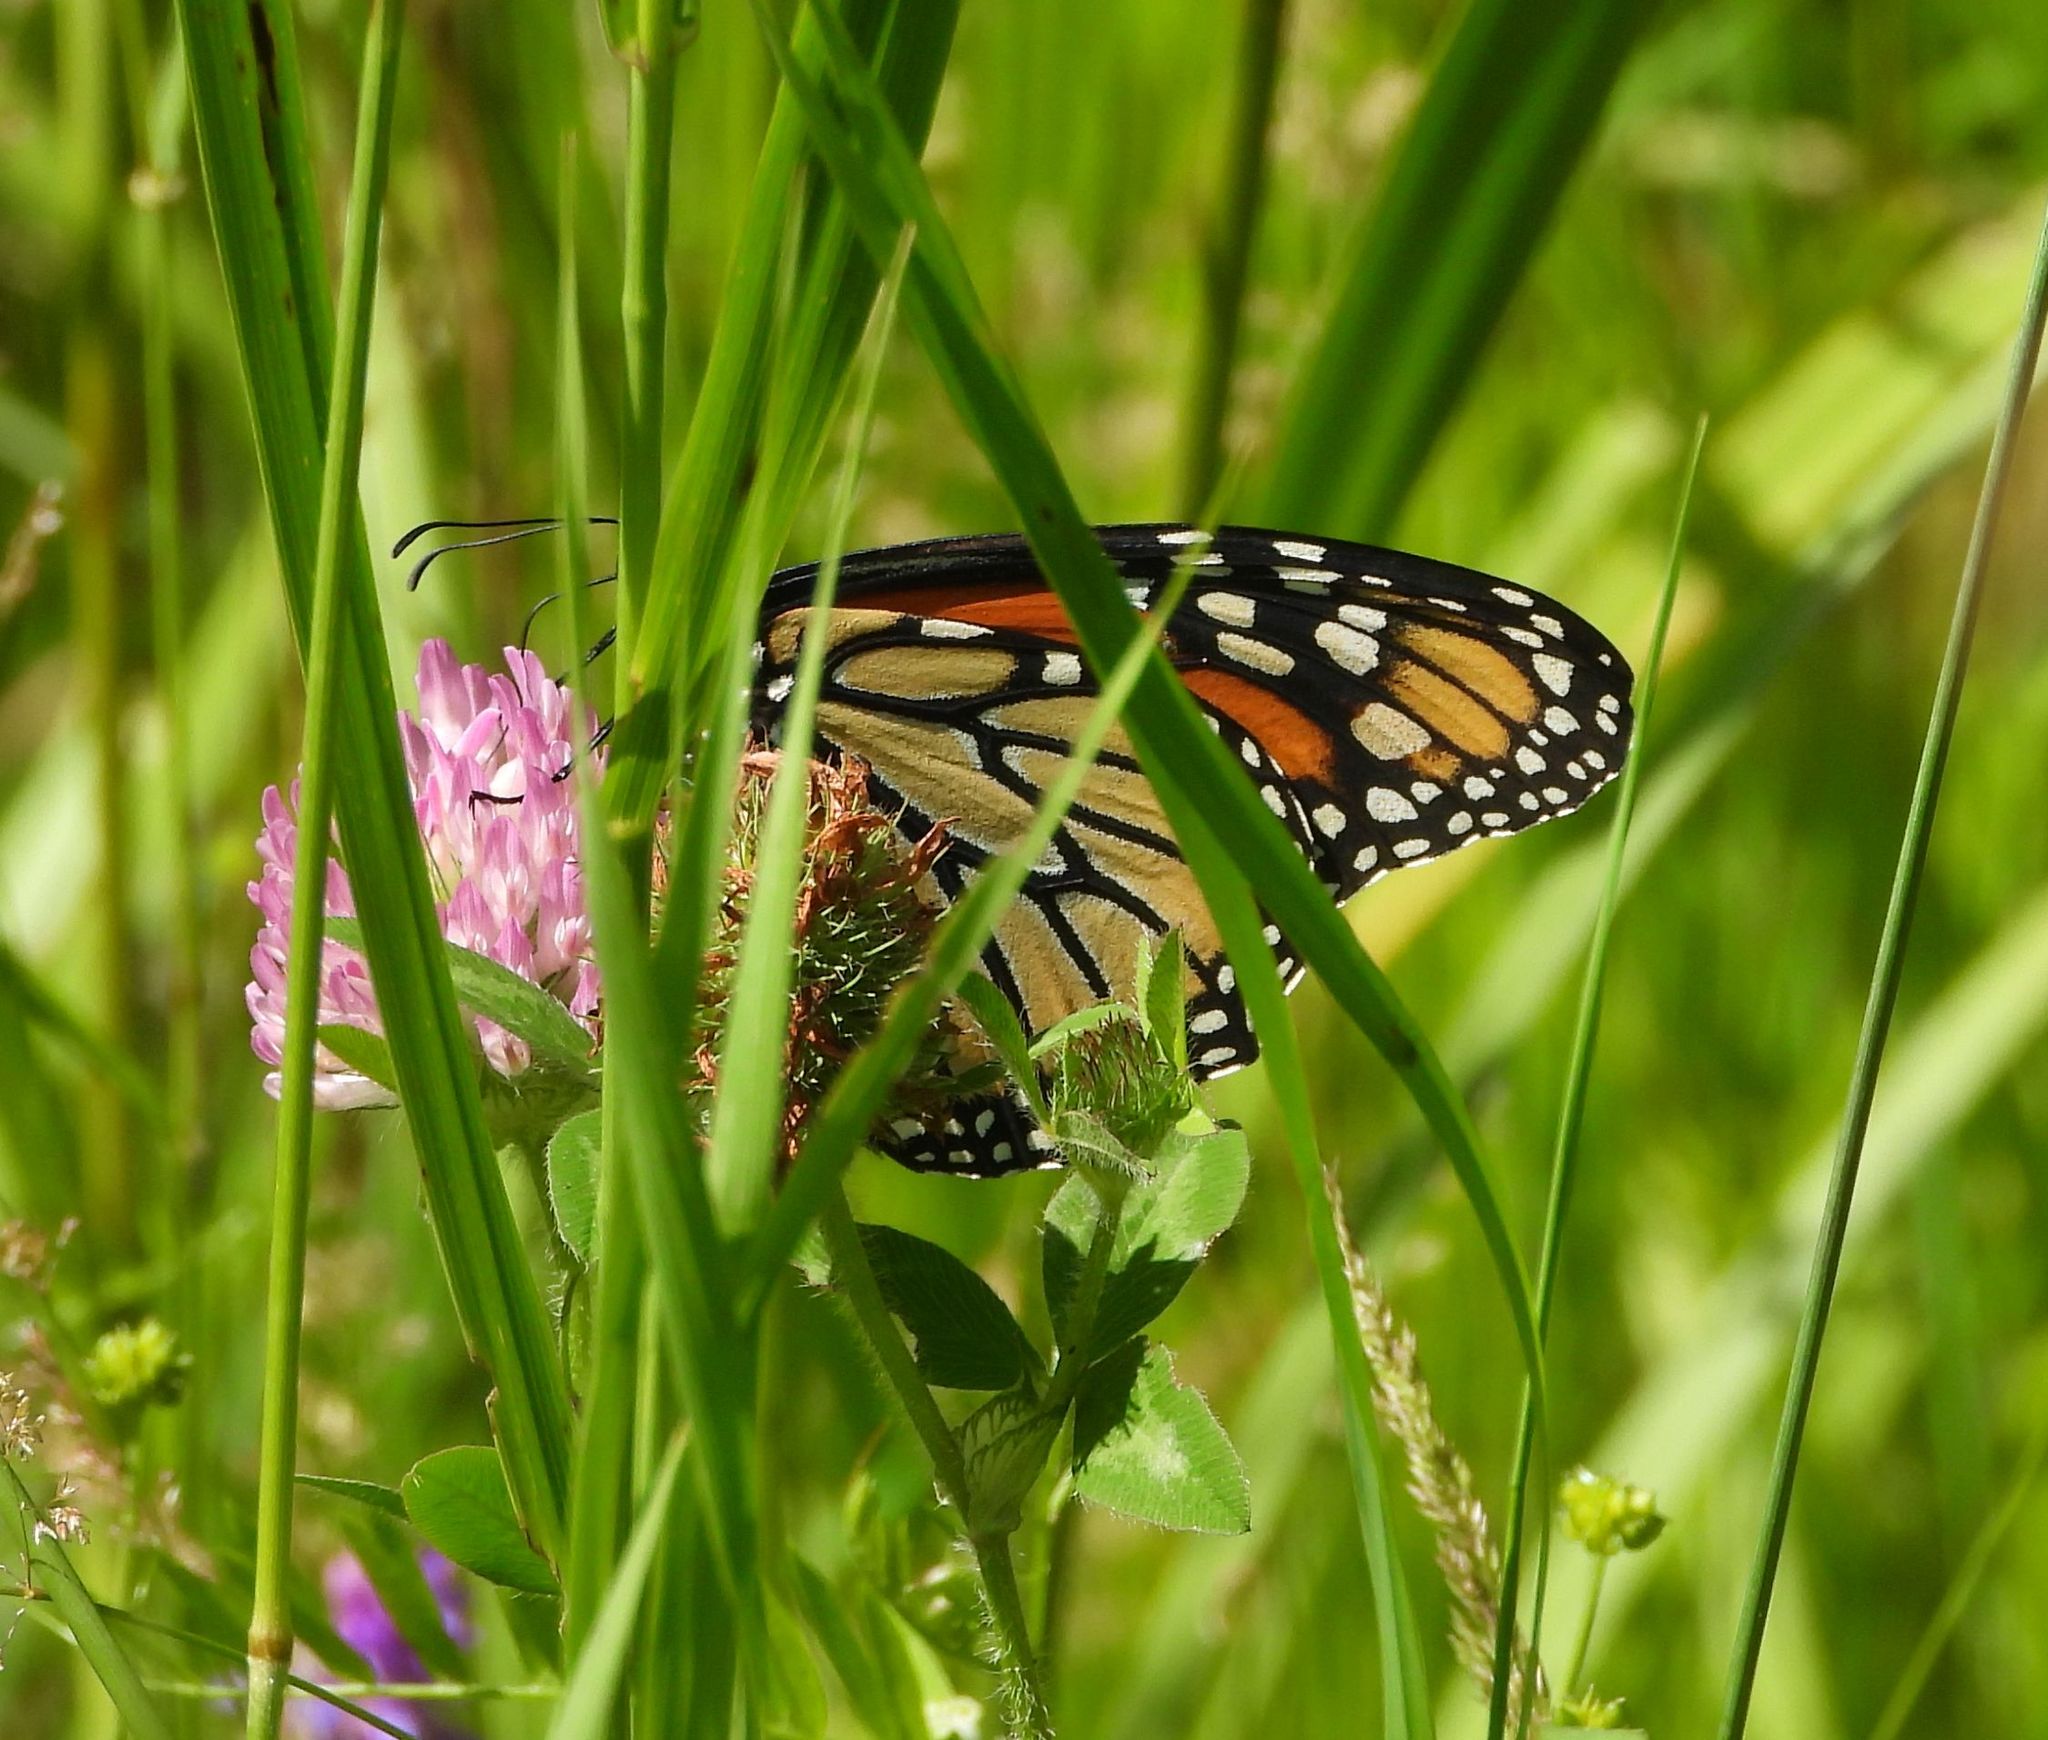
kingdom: Animalia
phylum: Arthropoda
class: Insecta
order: Lepidoptera
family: Nymphalidae
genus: Danaus
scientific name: Danaus plexippus
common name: Monarch
